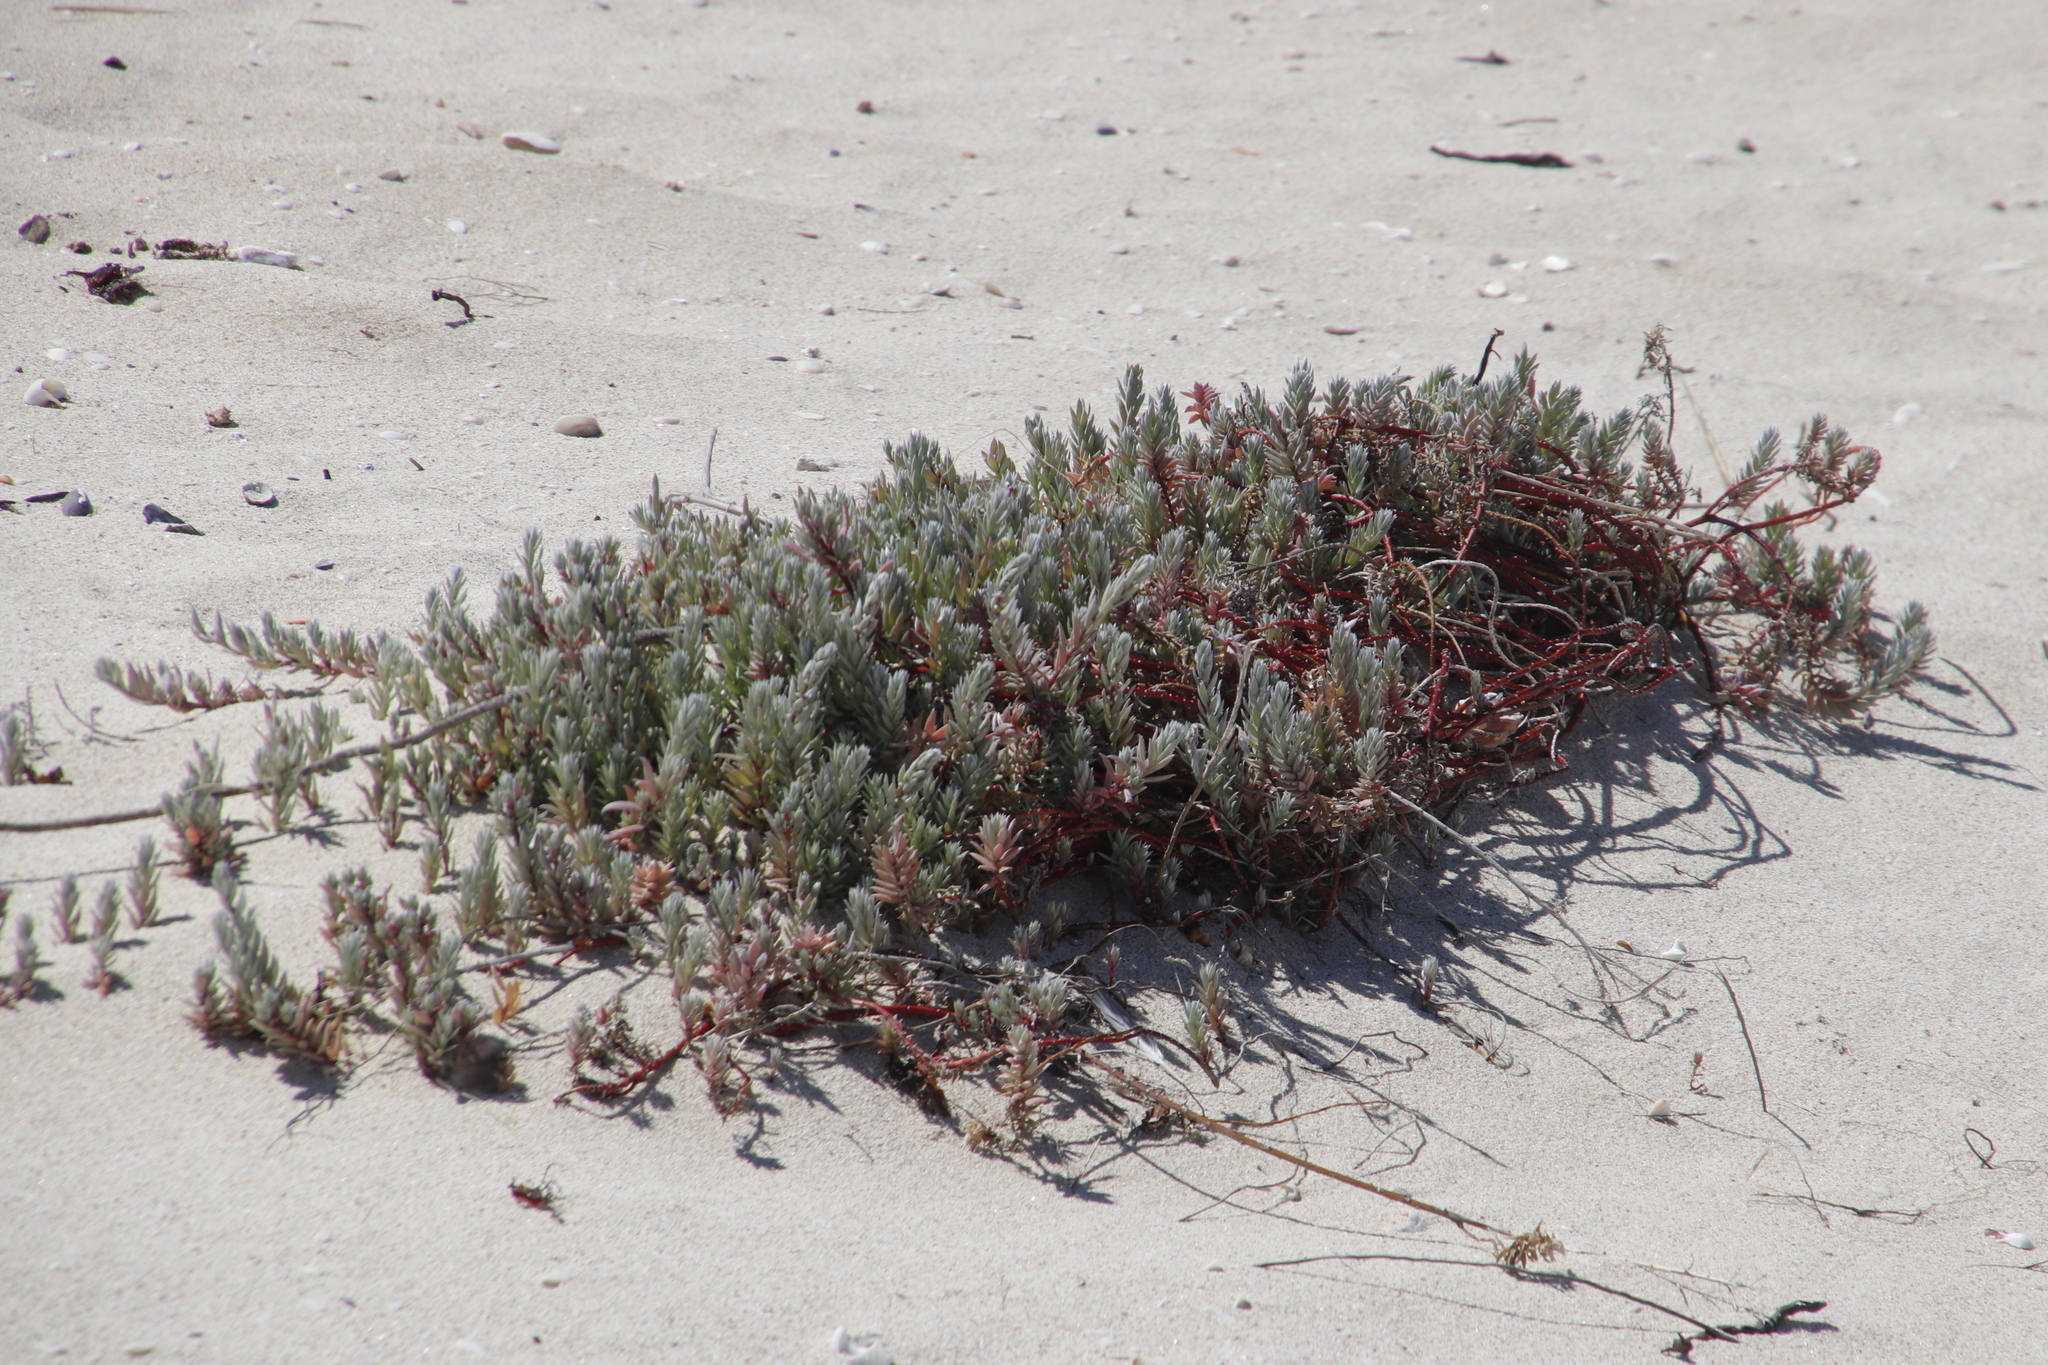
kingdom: Plantae
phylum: Tracheophyta
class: Magnoliopsida
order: Caryophyllales
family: Amaranthaceae
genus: Chenolea
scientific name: Chenolea diffusa
